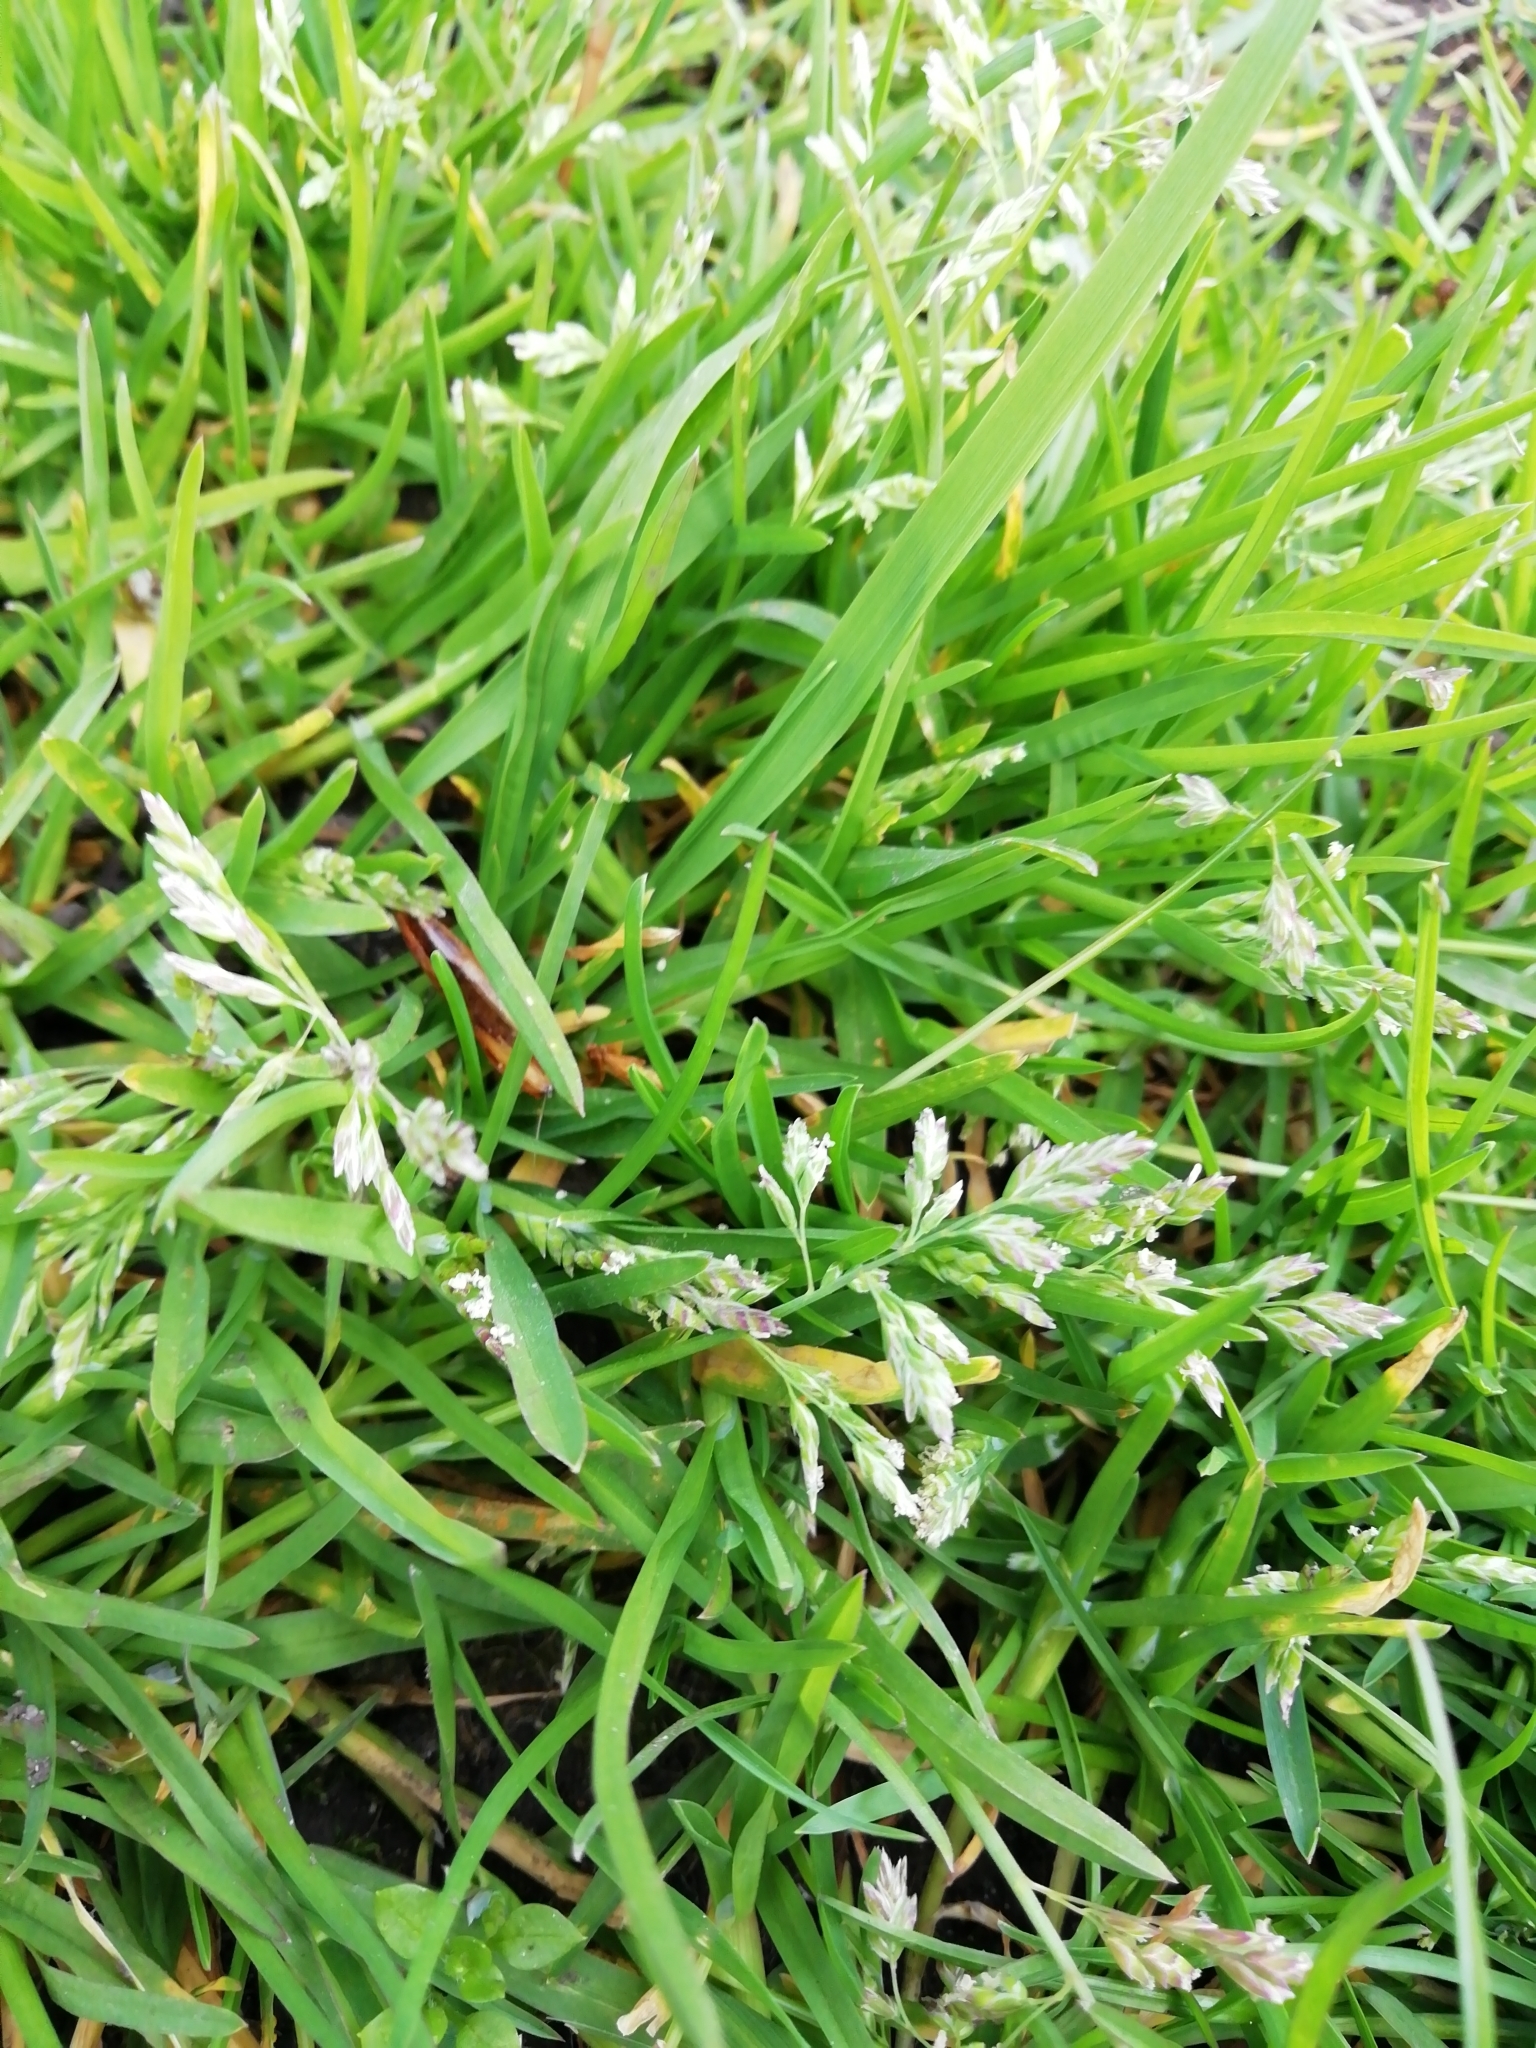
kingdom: Plantae
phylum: Tracheophyta
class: Liliopsida
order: Poales
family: Poaceae
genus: Poa
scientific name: Poa annua
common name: Annual bluegrass
